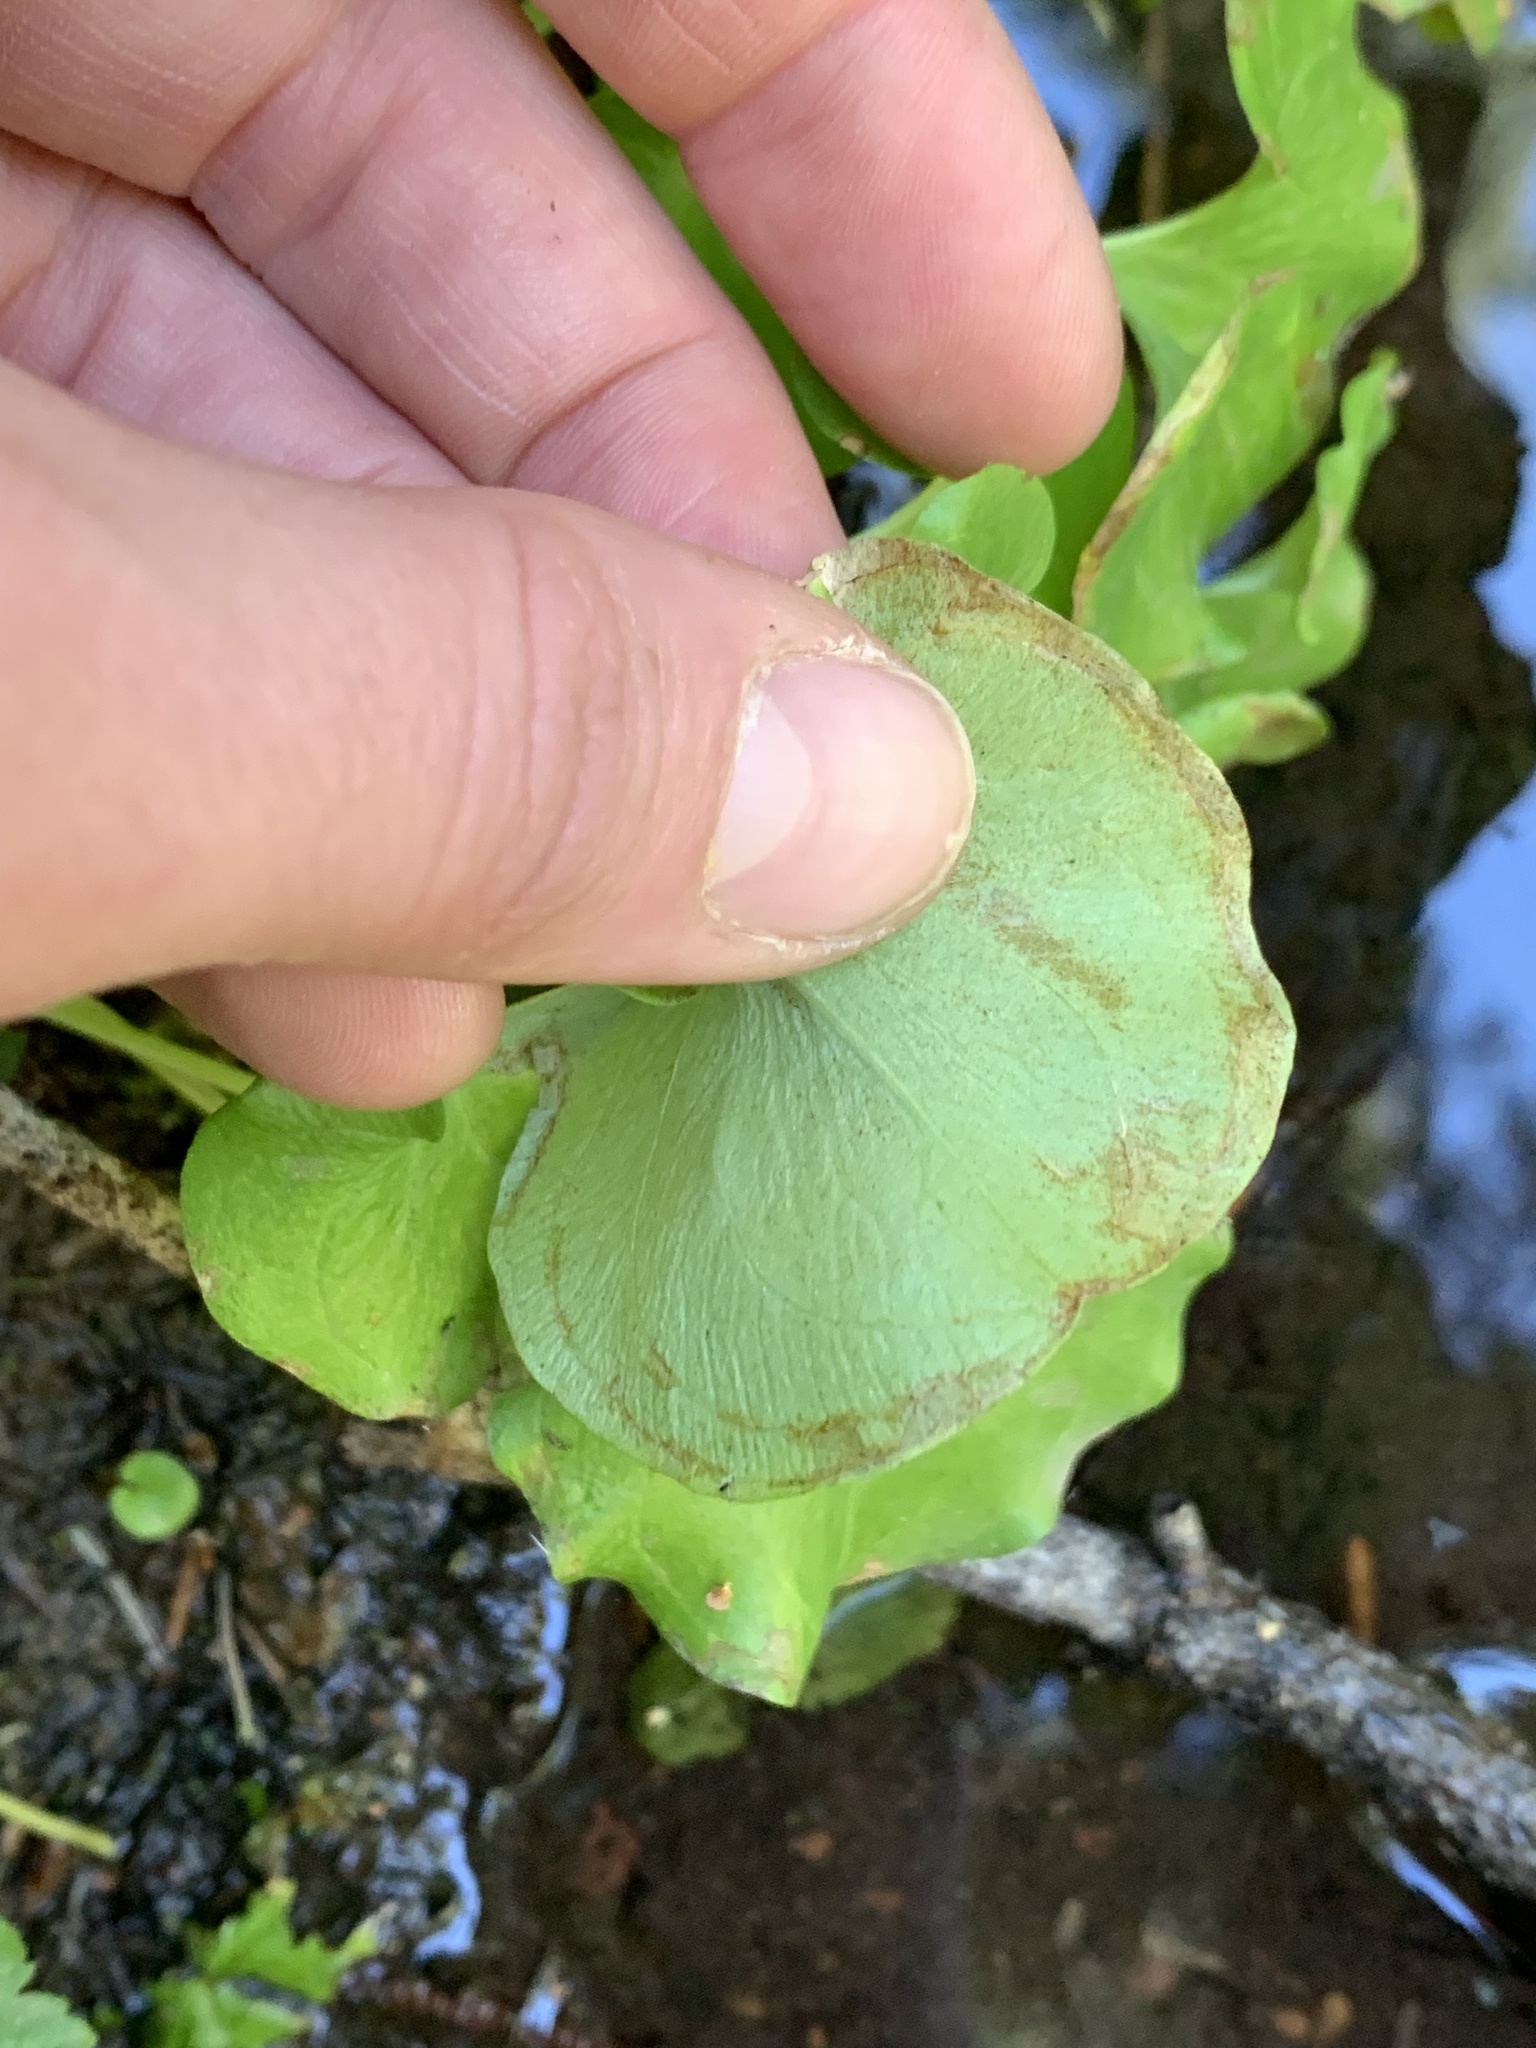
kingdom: Plantae
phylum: Tracheophyta
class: Magnoliopsida
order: Celastrales
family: Parnassiaceae
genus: Parnassia
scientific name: Parnassia fimbriata
